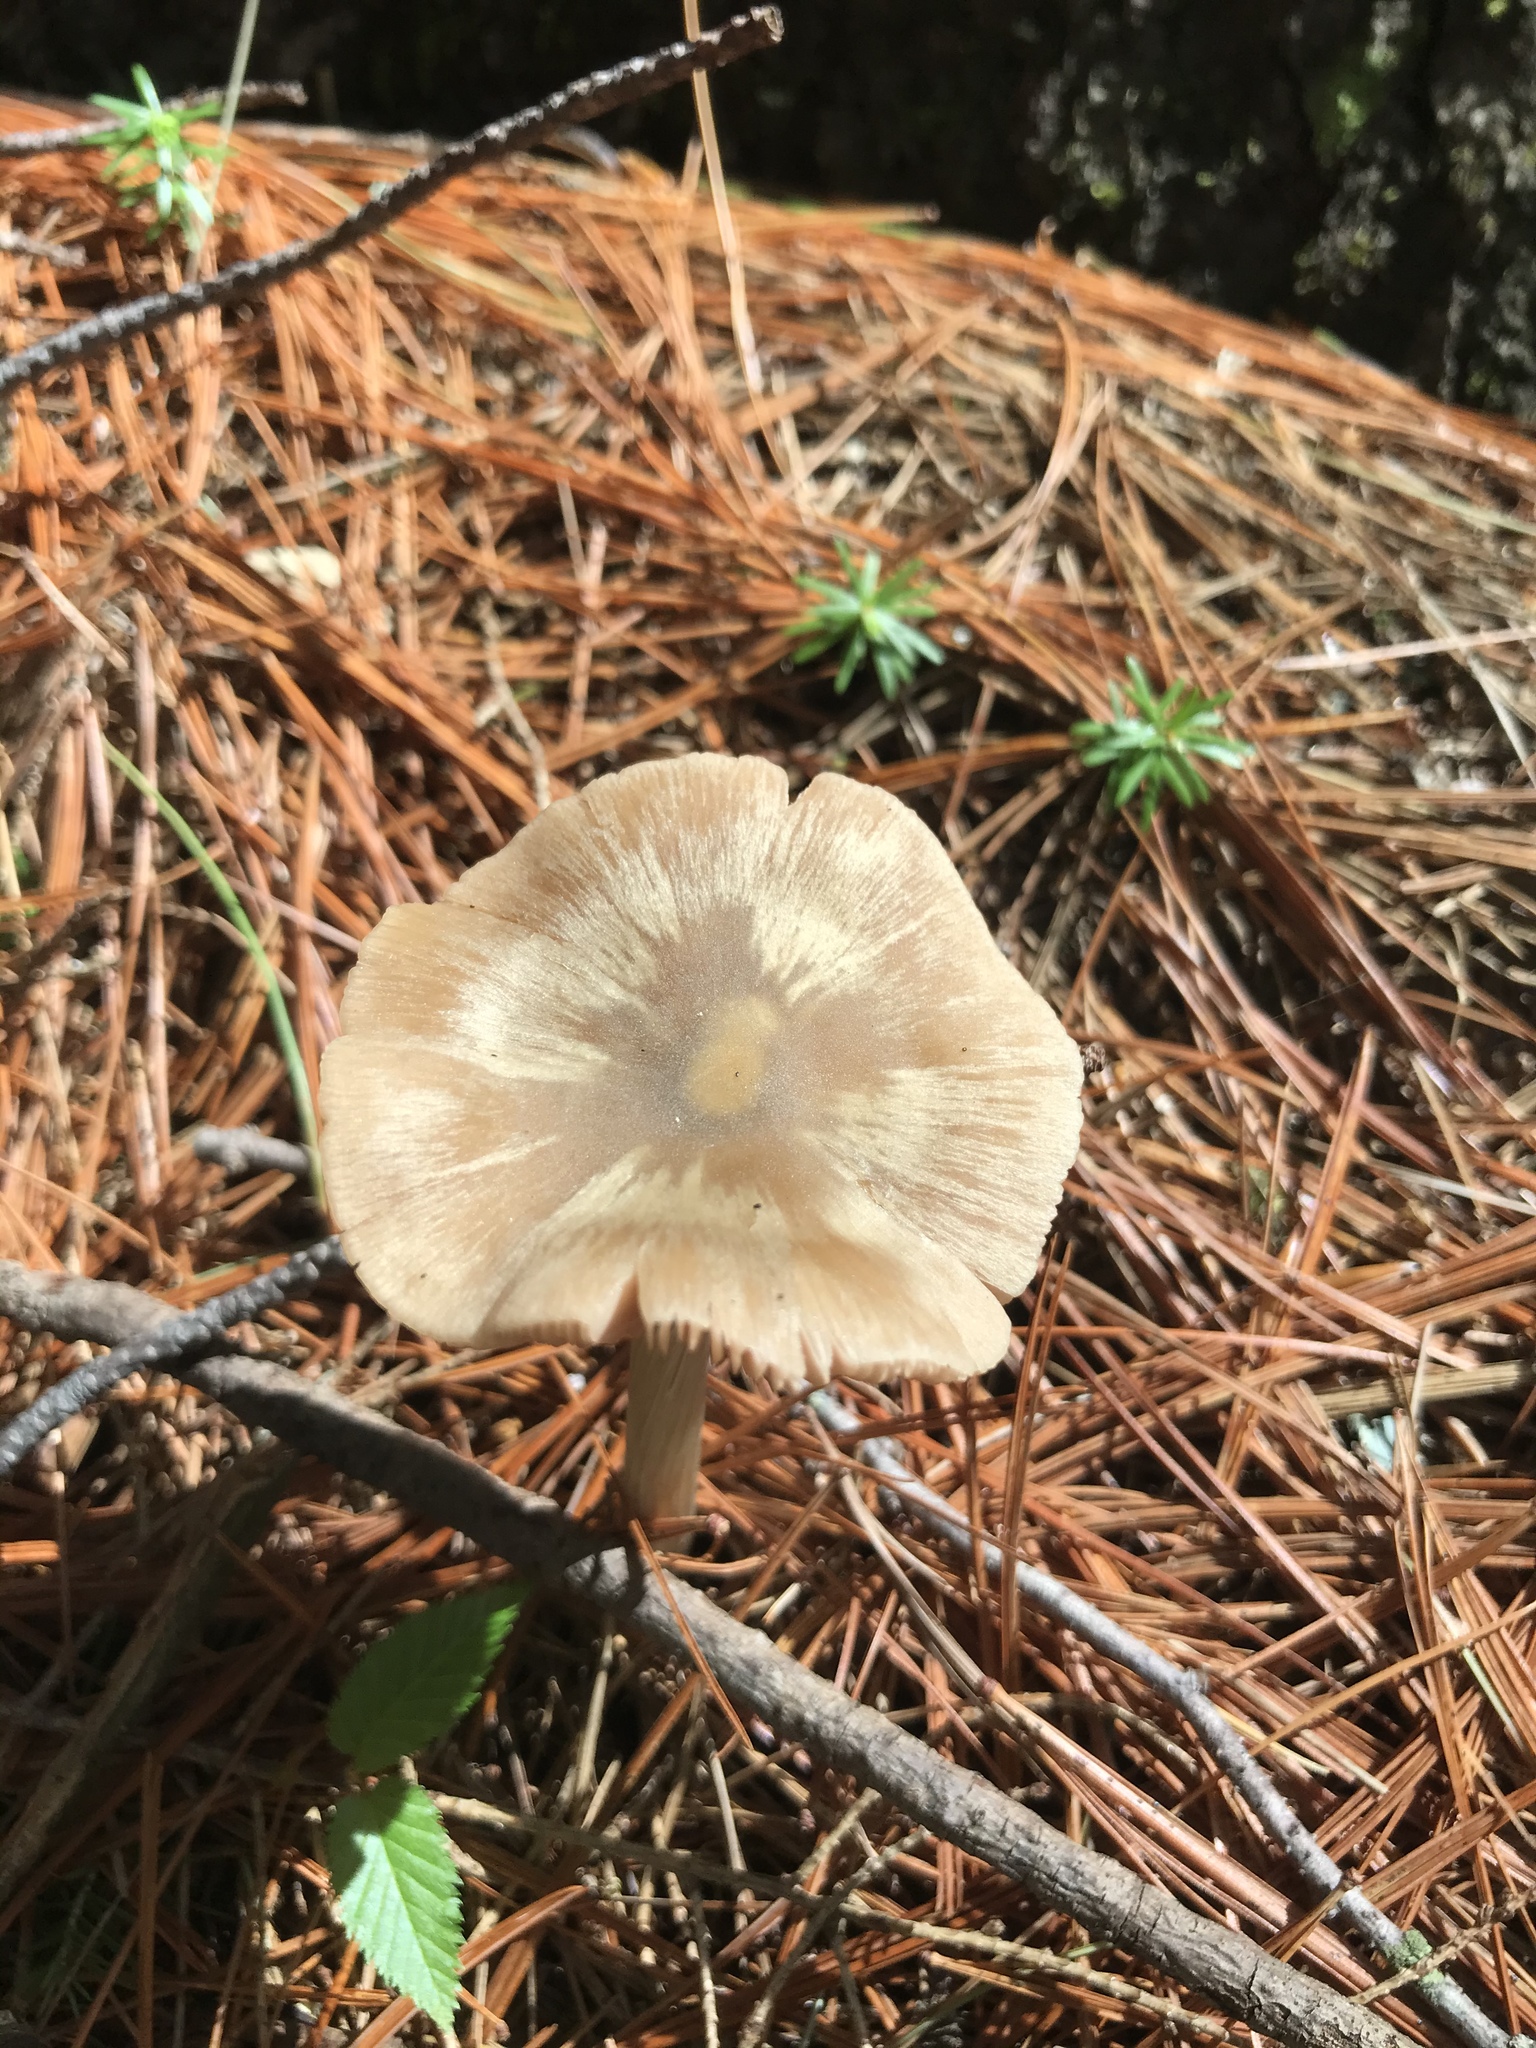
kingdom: Fungi
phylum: Basidiomycota
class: Agaricomycetes
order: Agaricales
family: Entolomataceae
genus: Entoloma
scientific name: Entoloma strictius
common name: Straight-stalked entoloma
